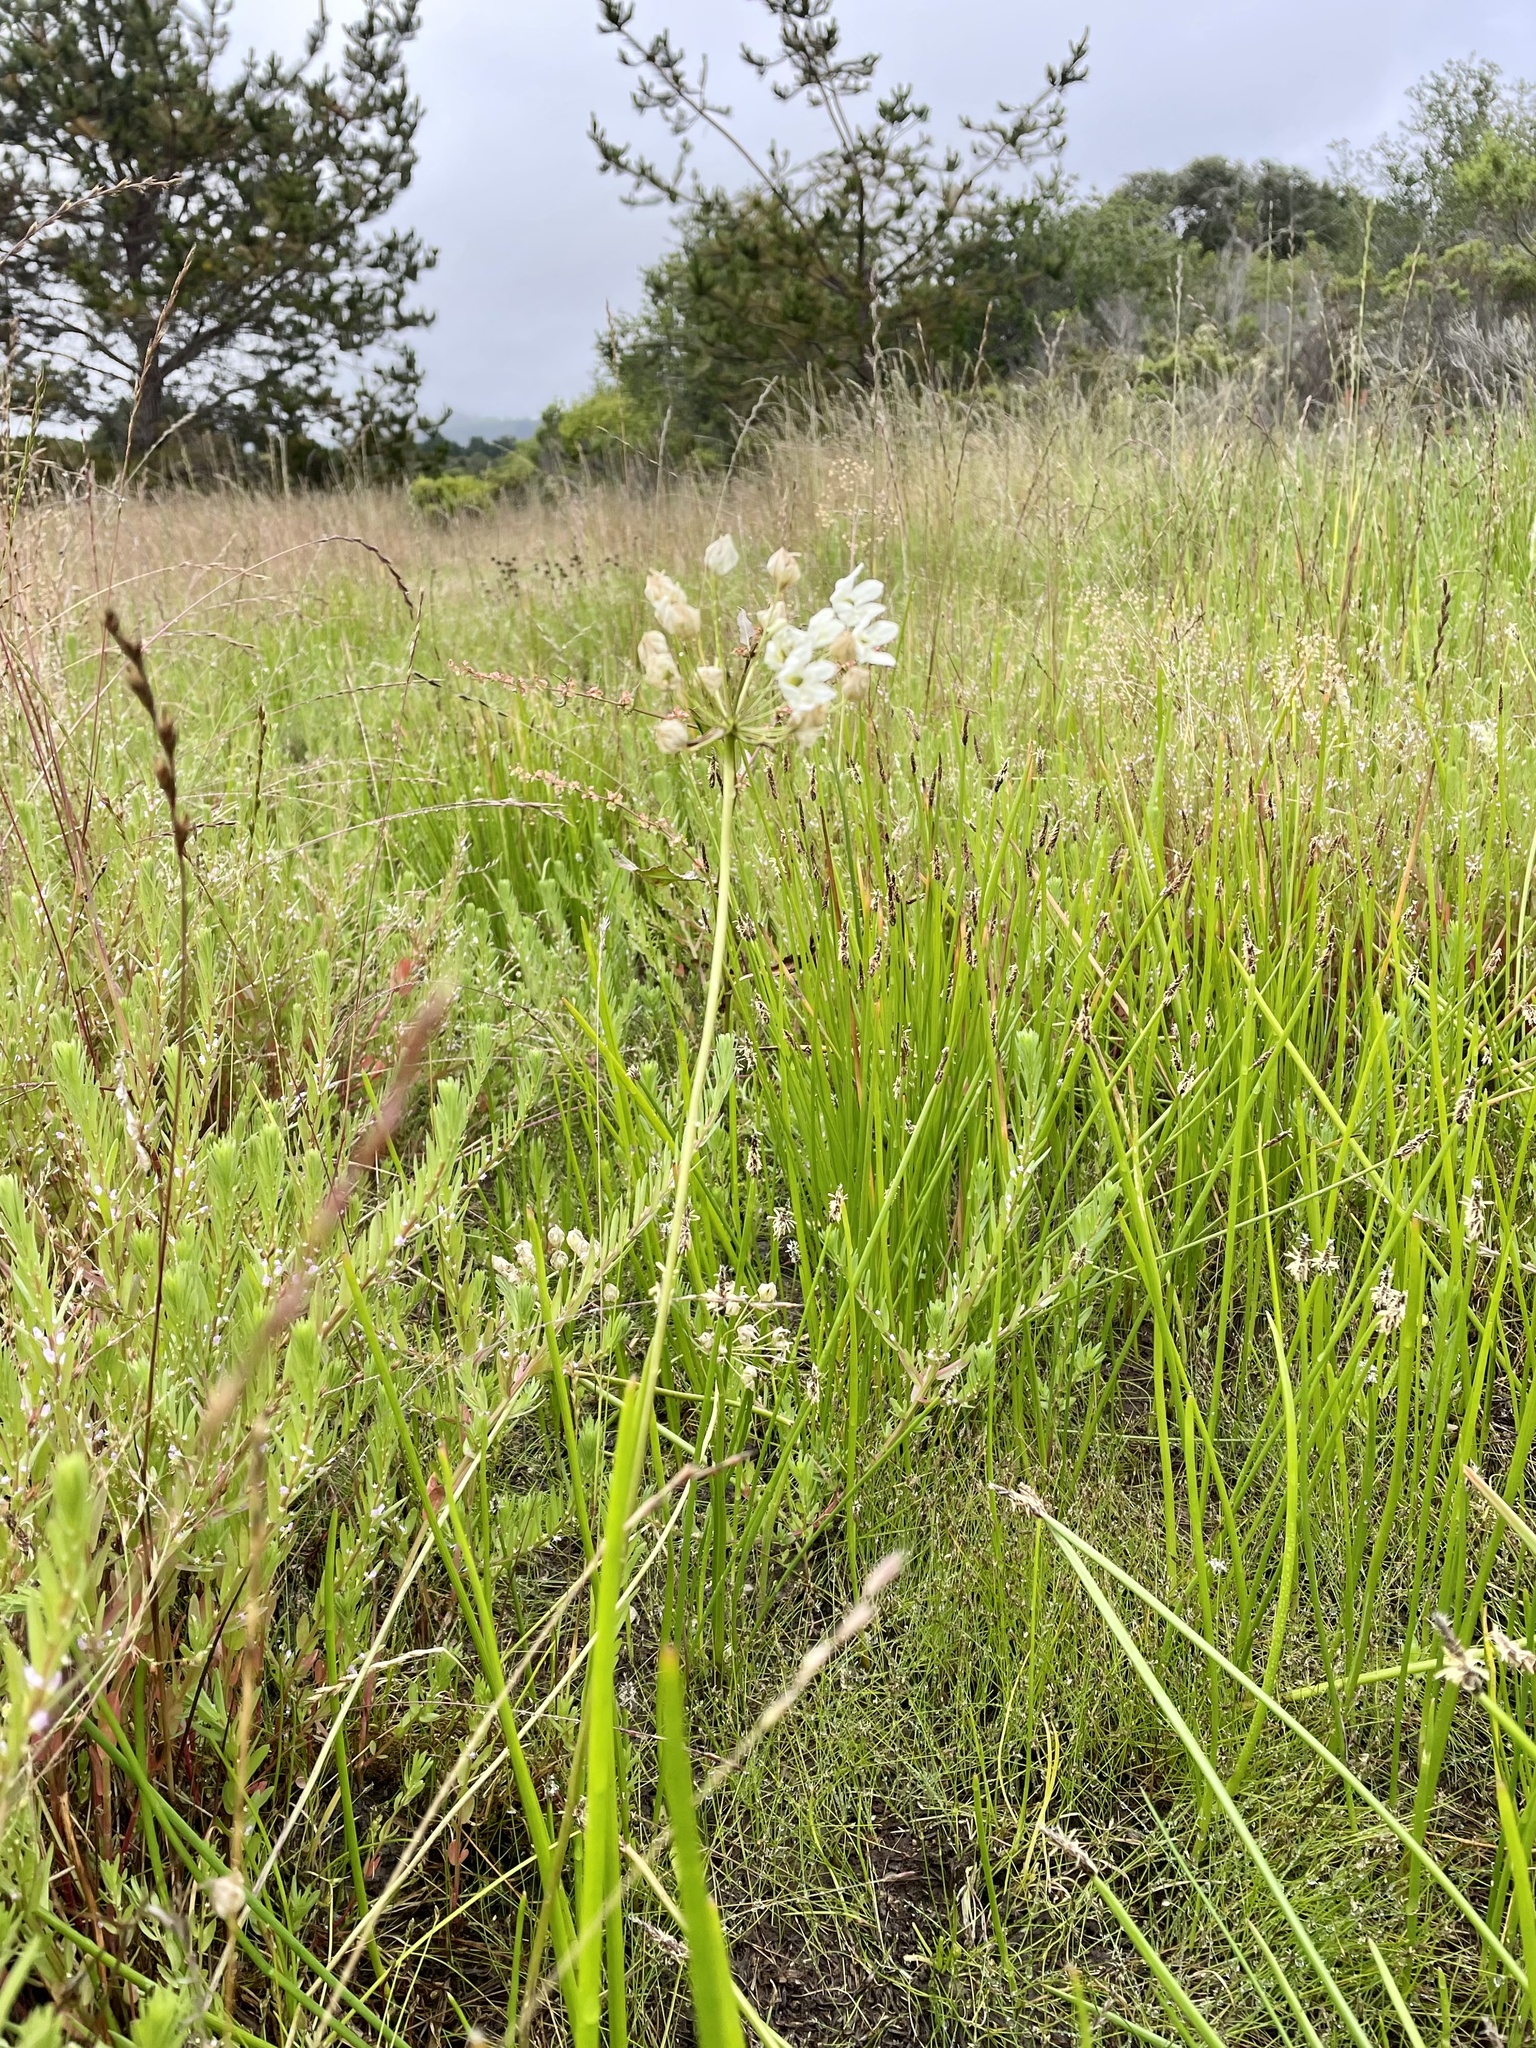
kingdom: Plantae
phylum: Tracheophyta
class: Liliopsida
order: Asparagales
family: Asparagaceae
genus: Triteleia
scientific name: Triteleia hyacinthina
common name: White brodiaea
